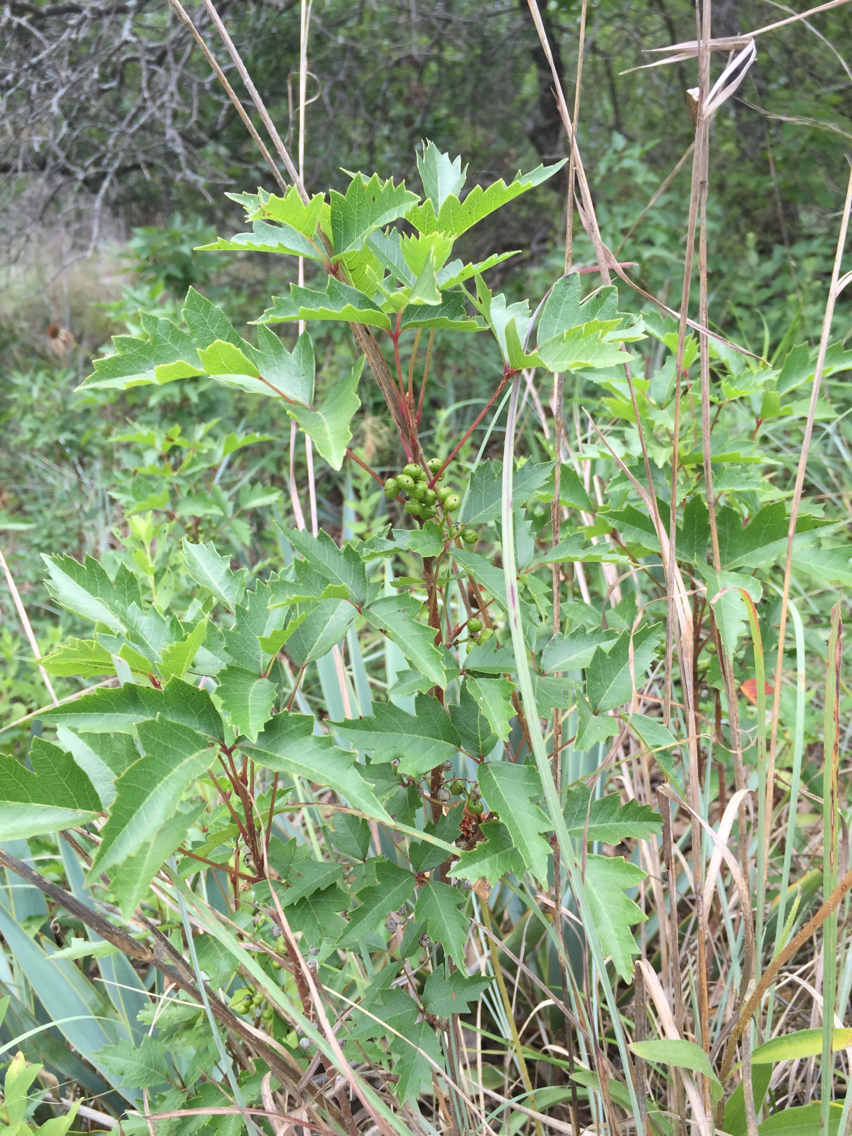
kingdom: Plantae
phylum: Tracheophyta
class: Magnoliopsida
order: Sapindales
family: Anacardiaceae
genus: Toxicodendron
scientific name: Toxicodendron radicans
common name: Poison ivy
